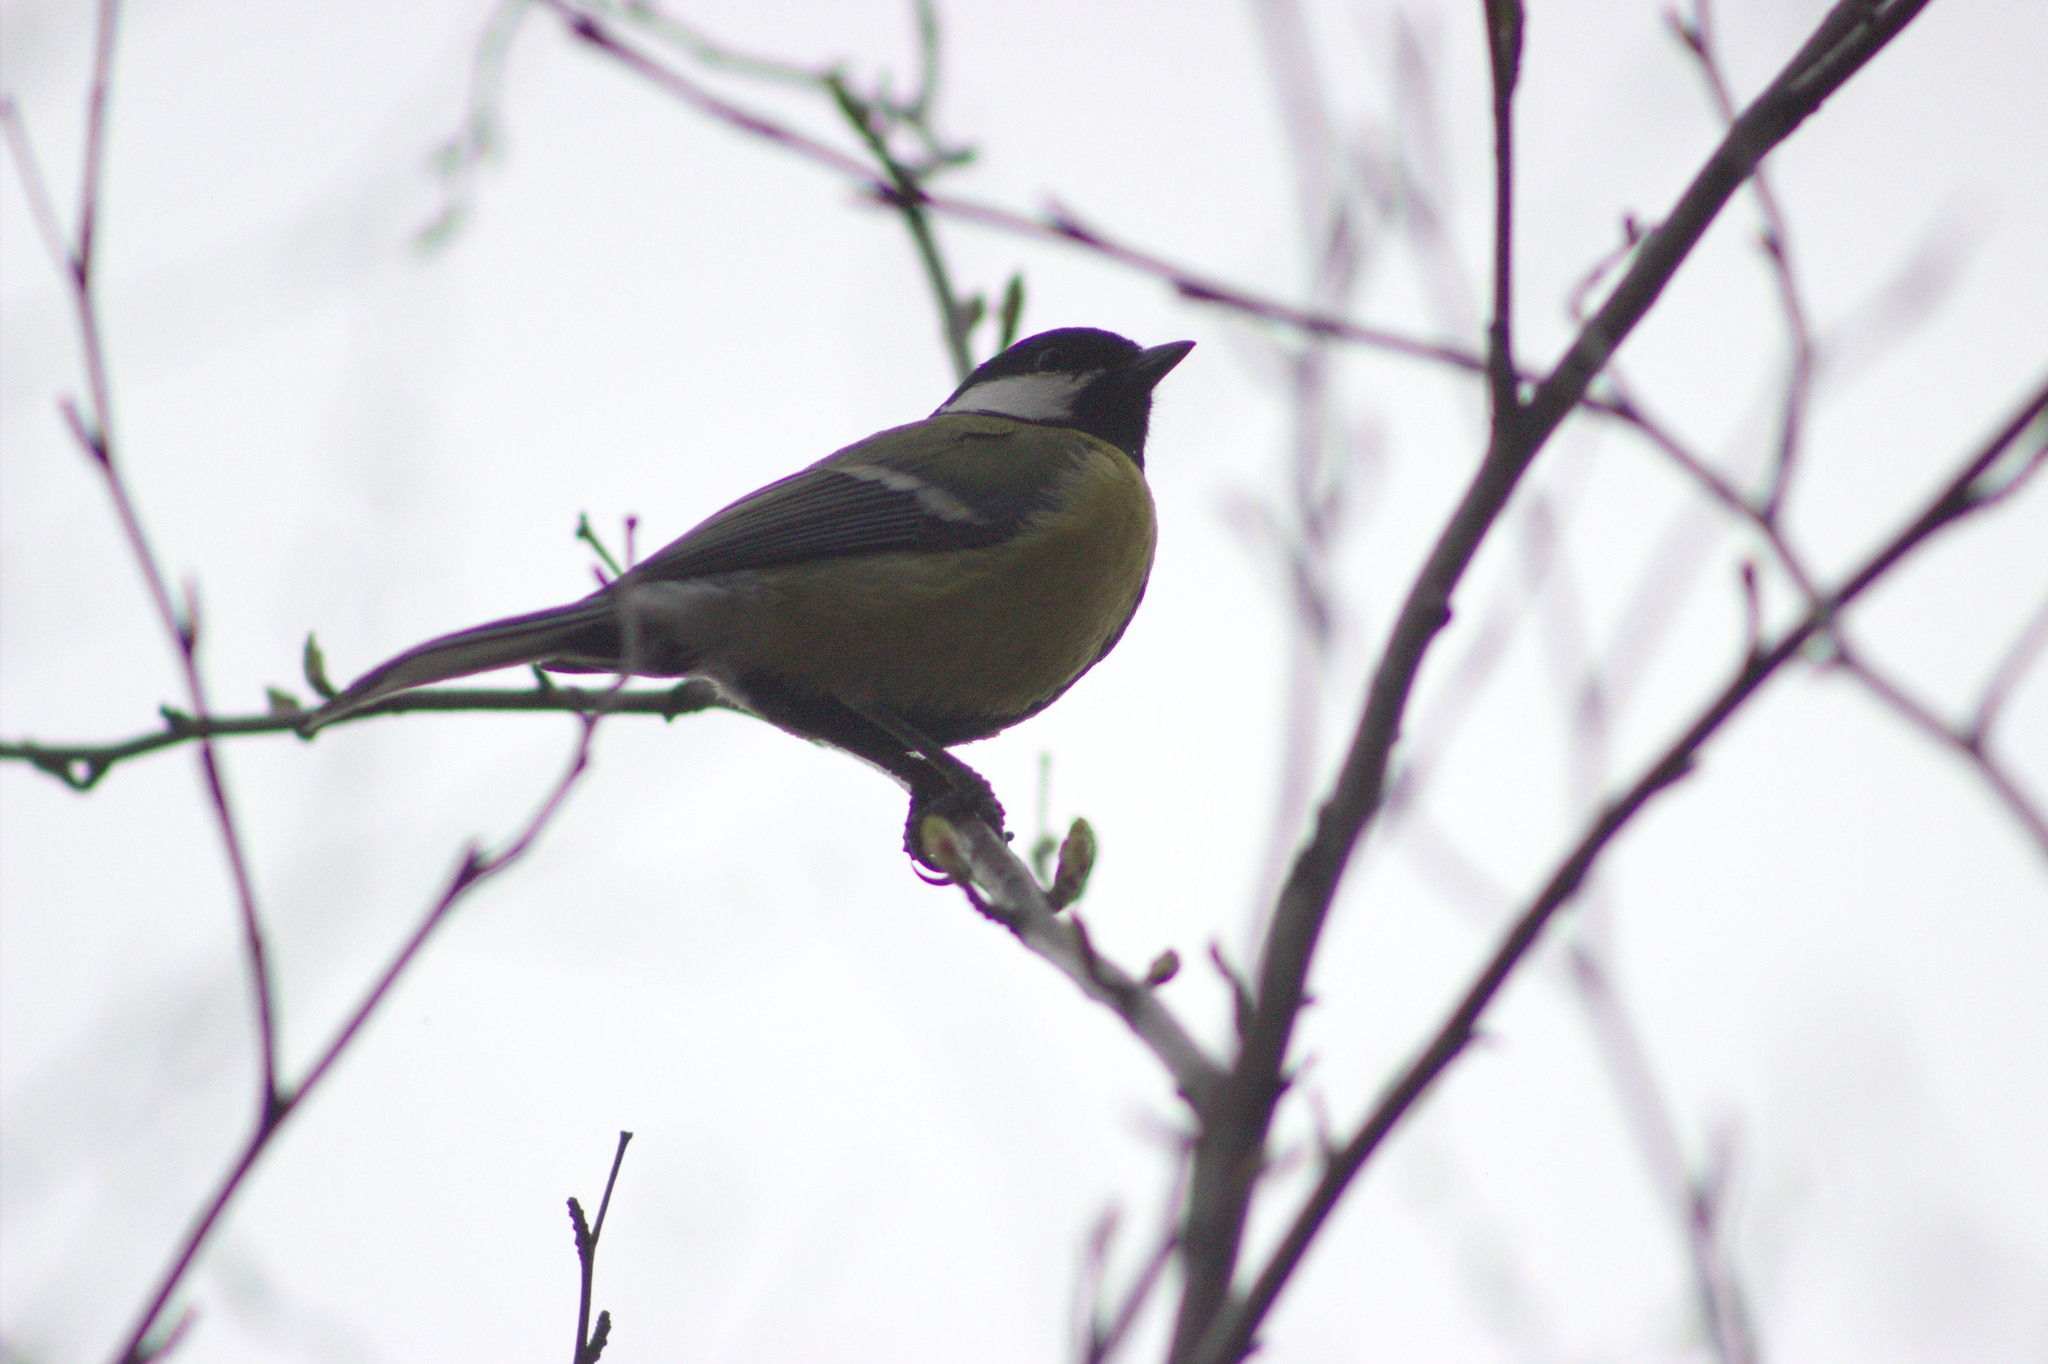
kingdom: Animalia
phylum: Chordata
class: Aves
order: Passeriformes
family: Paridae
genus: Parus
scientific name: Parus major
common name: Great tit
